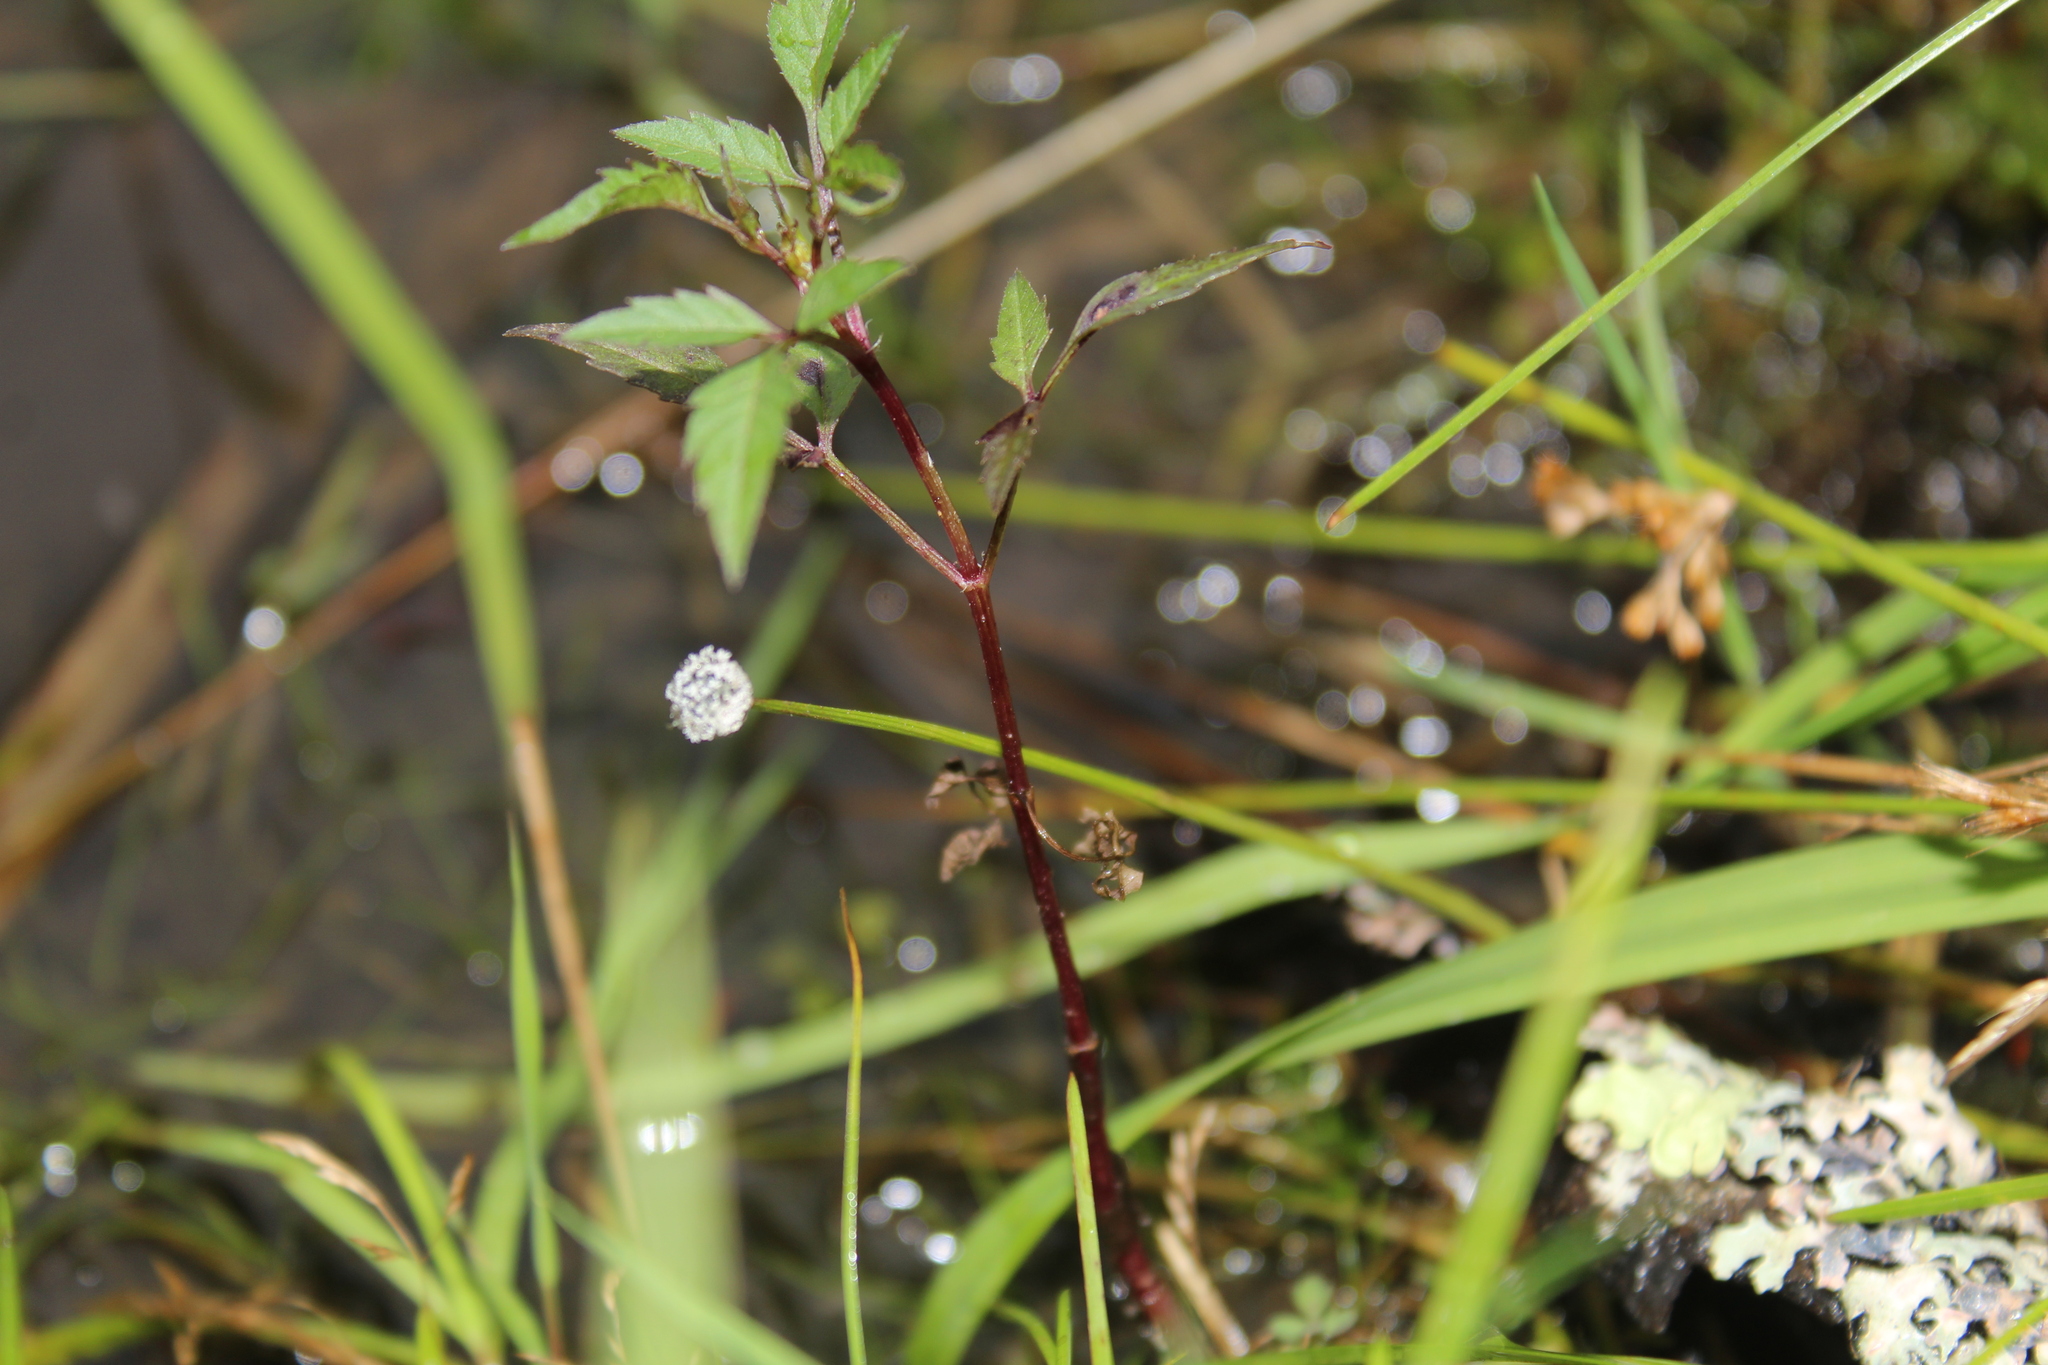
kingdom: Plantae
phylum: Tracheophyta
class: Liliopsida
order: Poales
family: Eriocaulaceae
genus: Eriocaulon
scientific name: Eriocaulon aquaticum
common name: Pipewort
